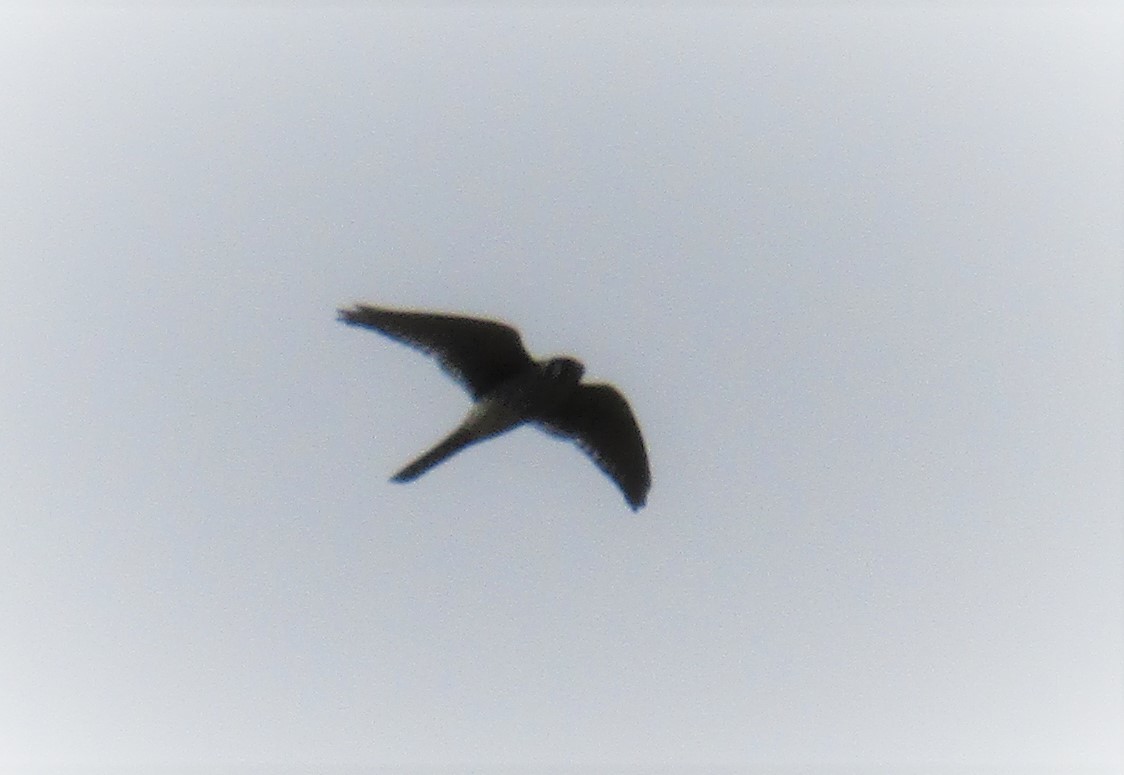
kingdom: Animalia
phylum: Chordata
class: Aves
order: Falconiformes
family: Falconidae
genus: Falco
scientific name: Falco sparverius
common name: American kestrel
